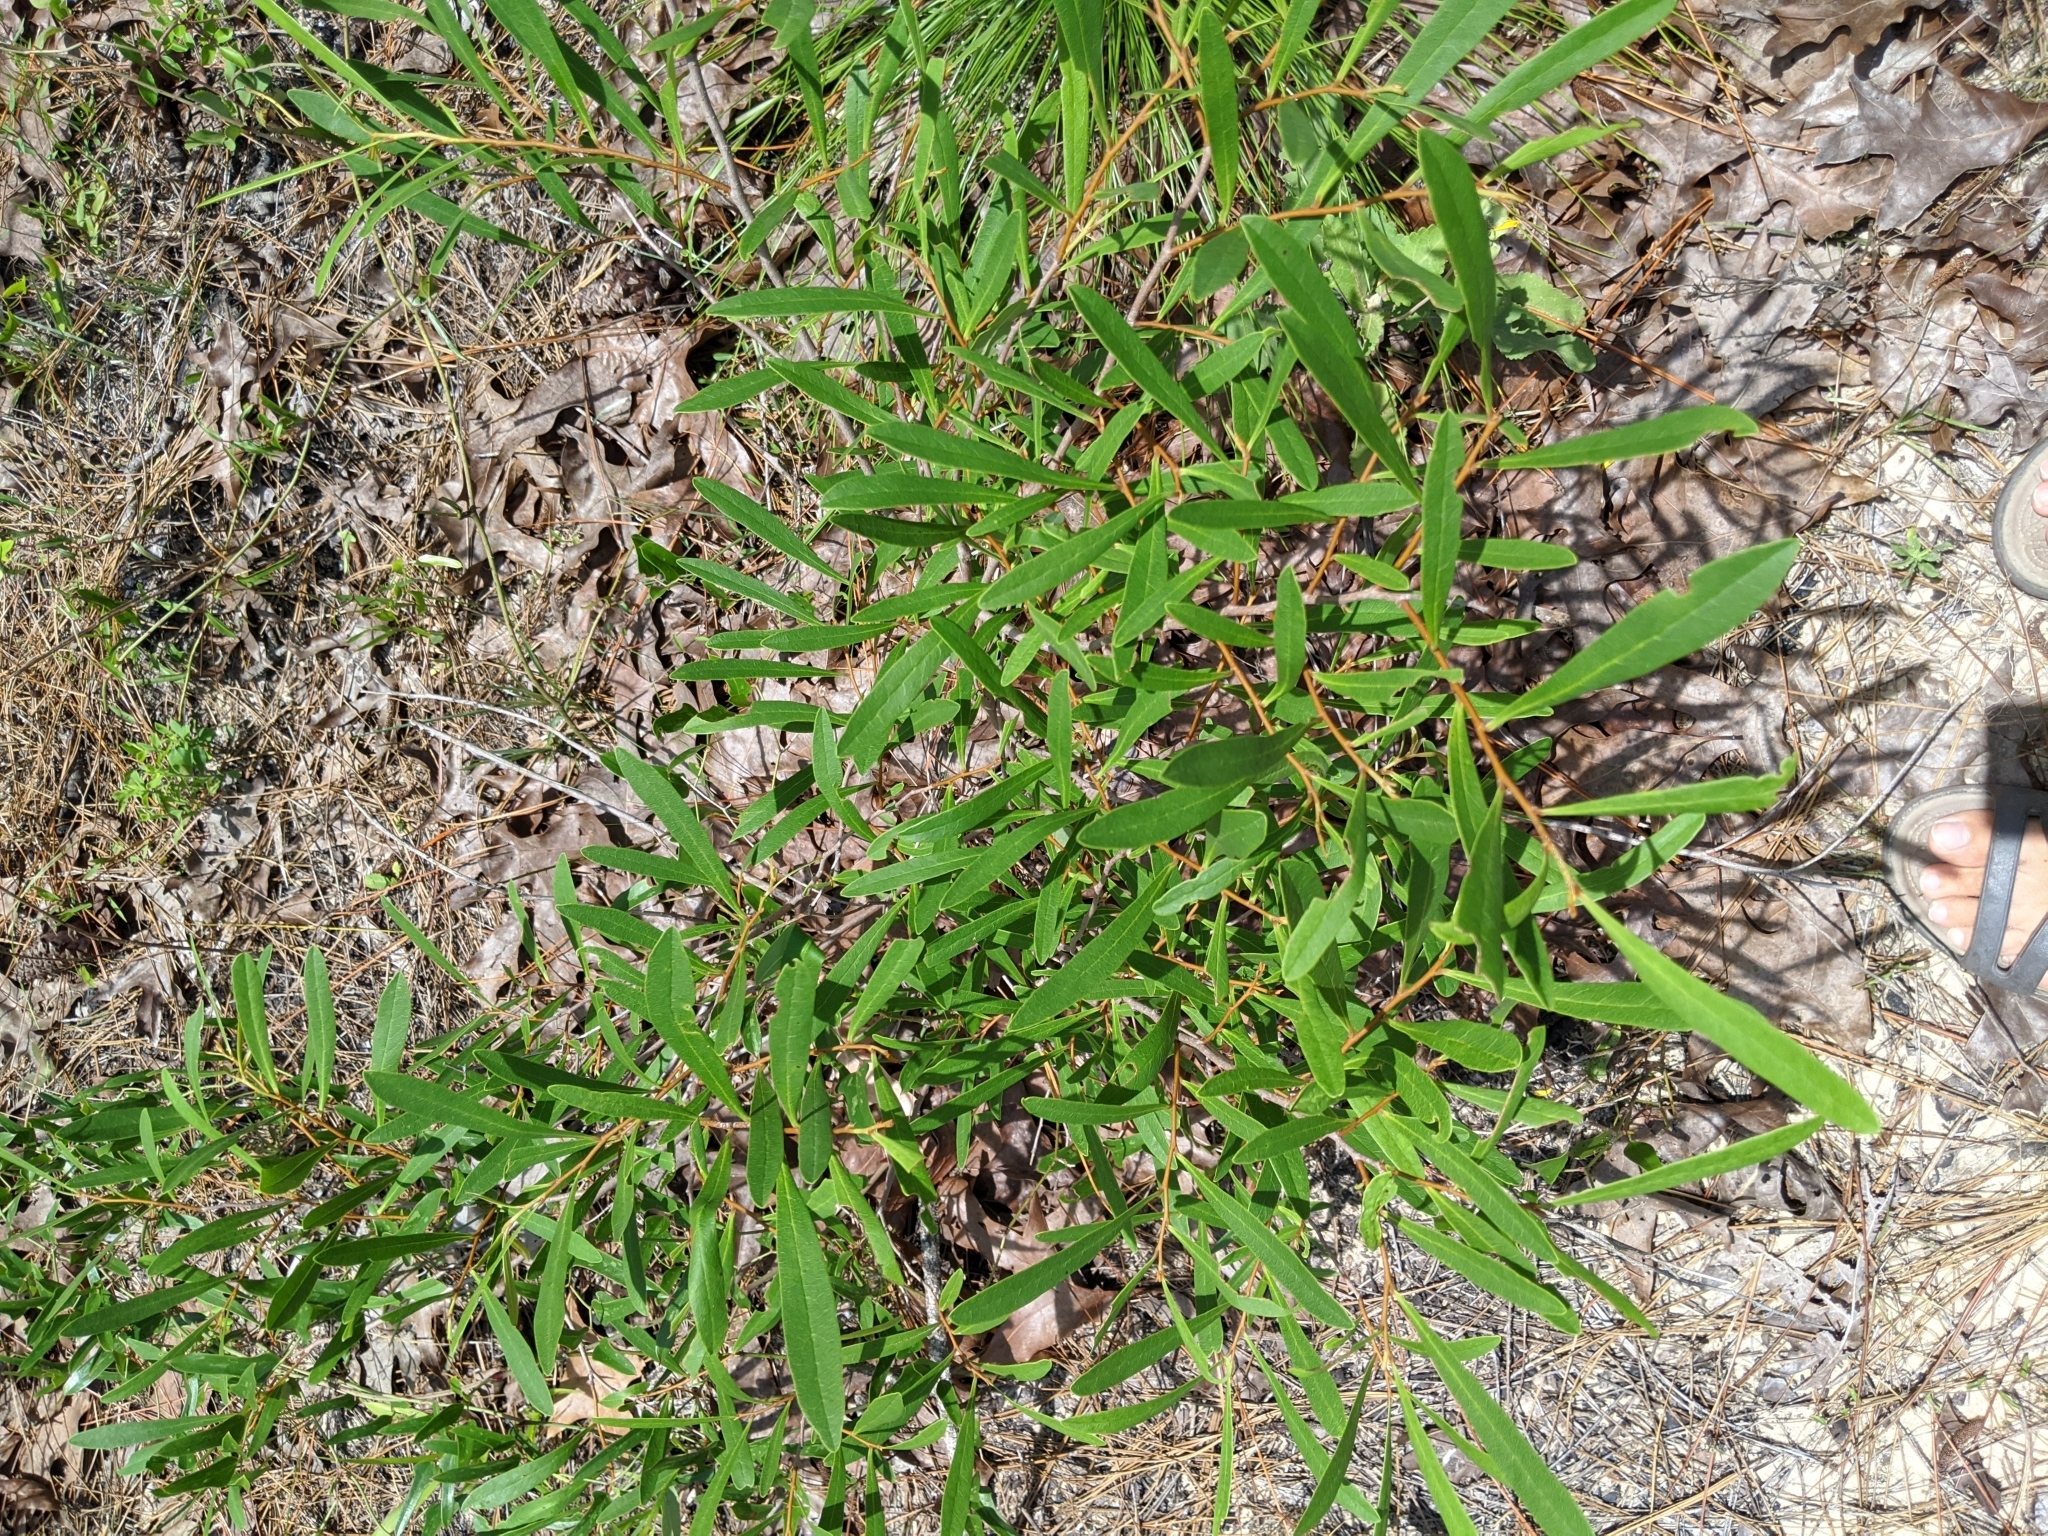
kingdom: Plantae
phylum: Tracheophyta
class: Magnoliopsida
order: Magnoliales
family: Annonaceae
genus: Asimina
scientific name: Asimina longifolia
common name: Polecatbush
